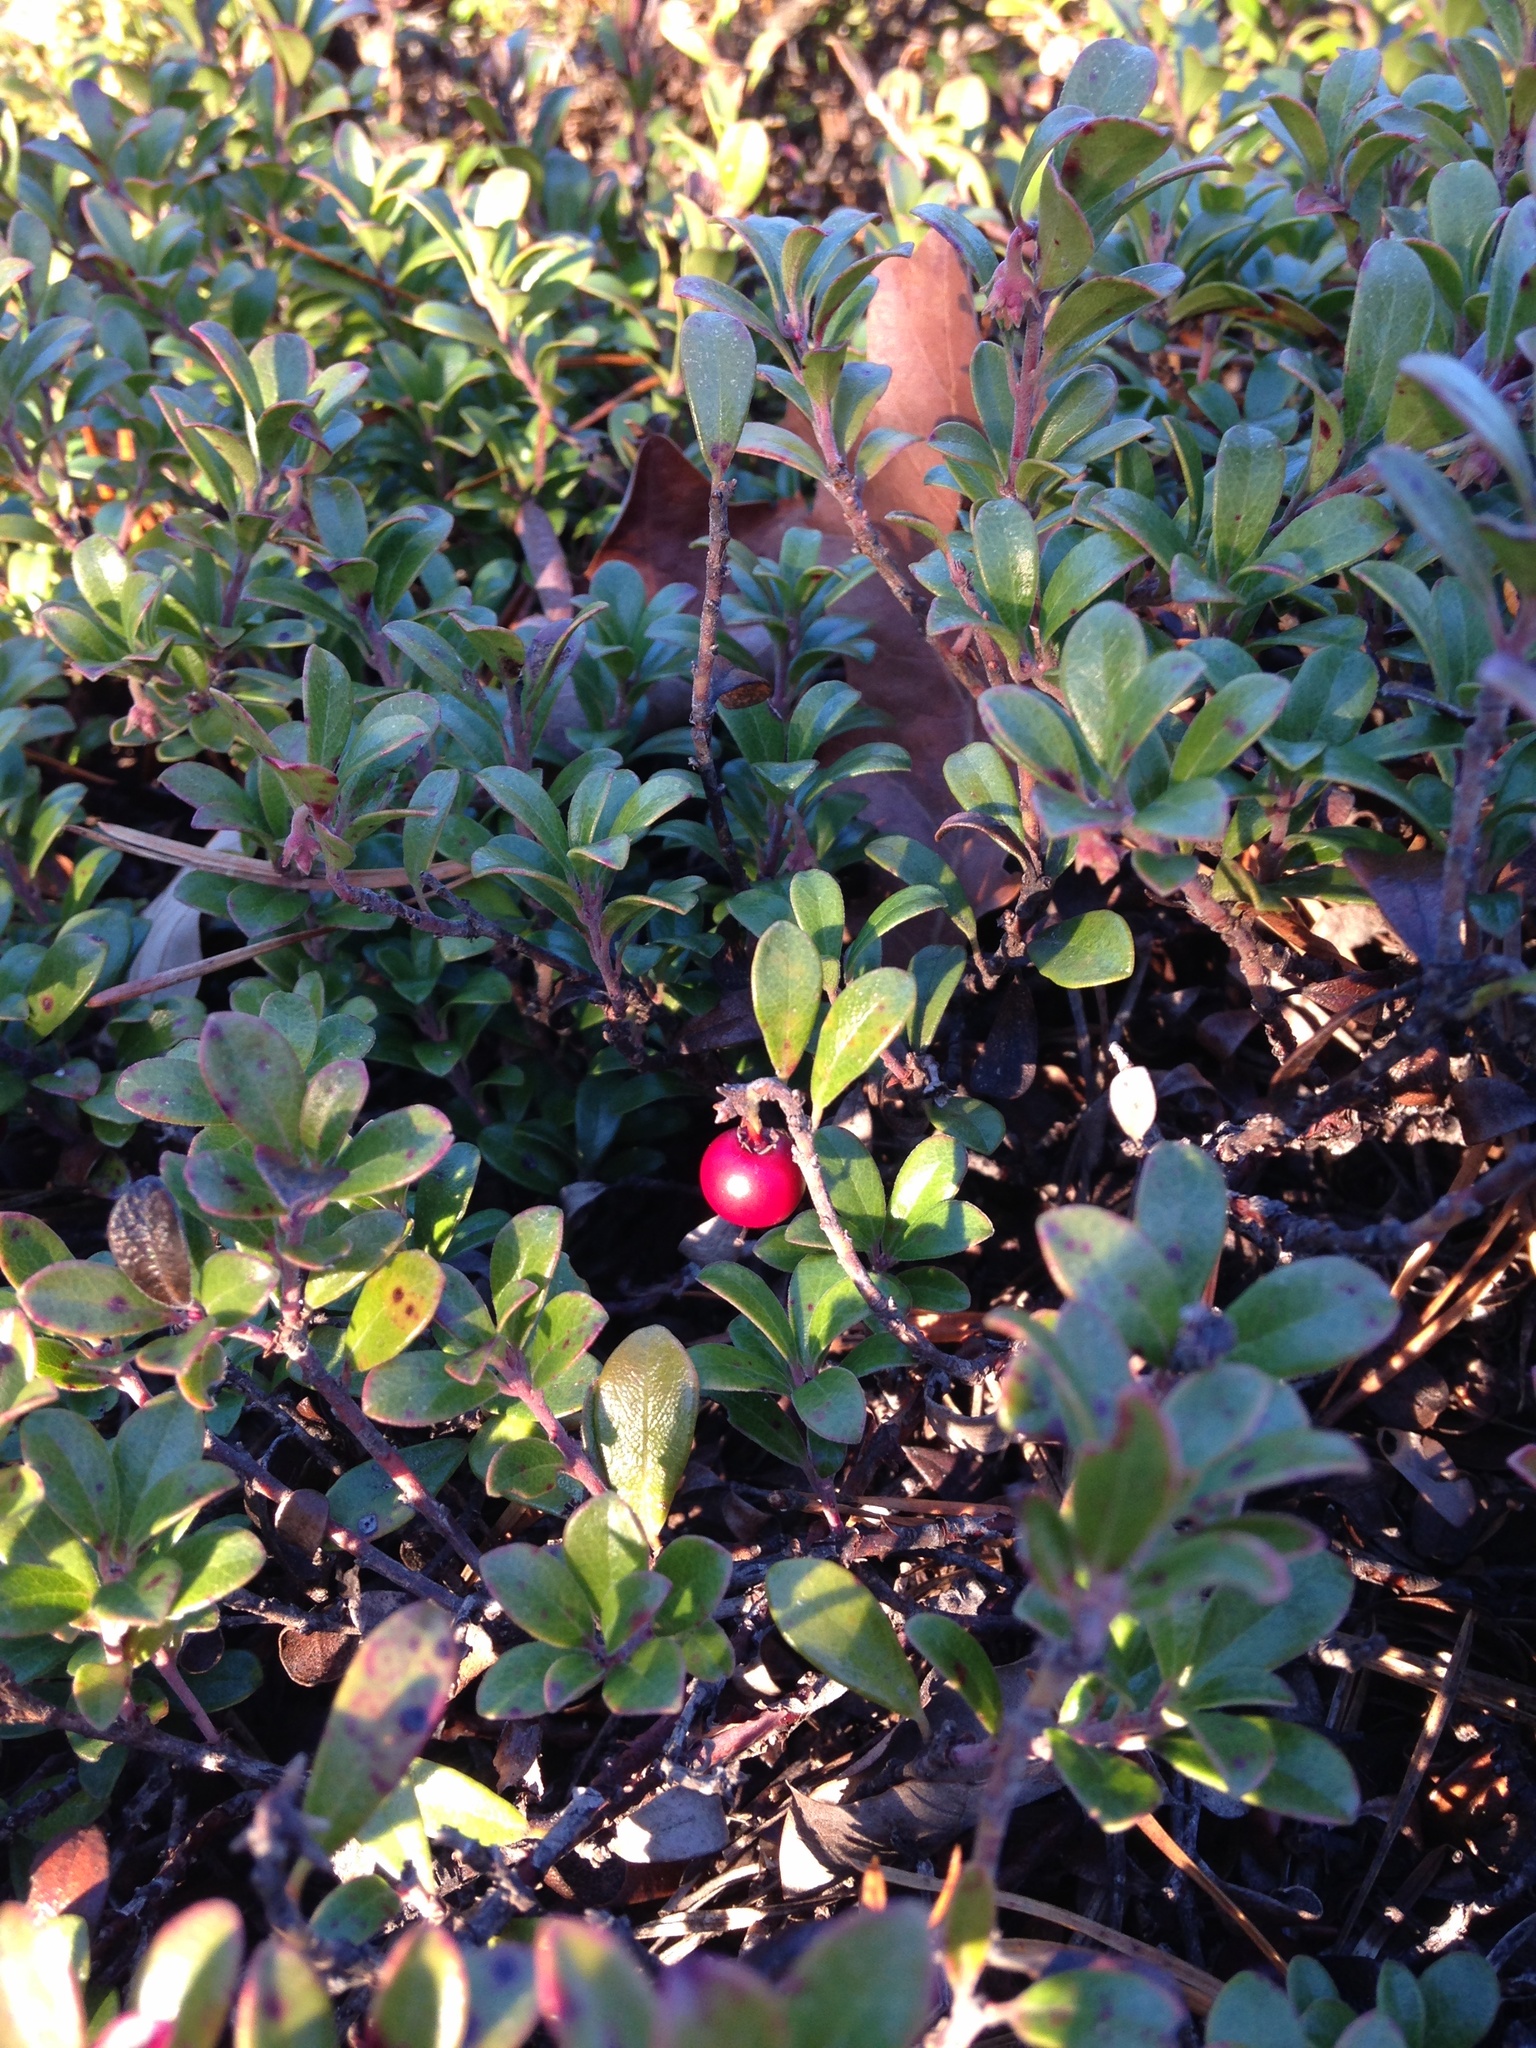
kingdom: Plantae
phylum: Tracheophyta
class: Magnoliopsida
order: Ericales
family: Ericaceae
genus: Arctostaphylos
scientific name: Arctostaphylos uva-ursi
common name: Bearberry
